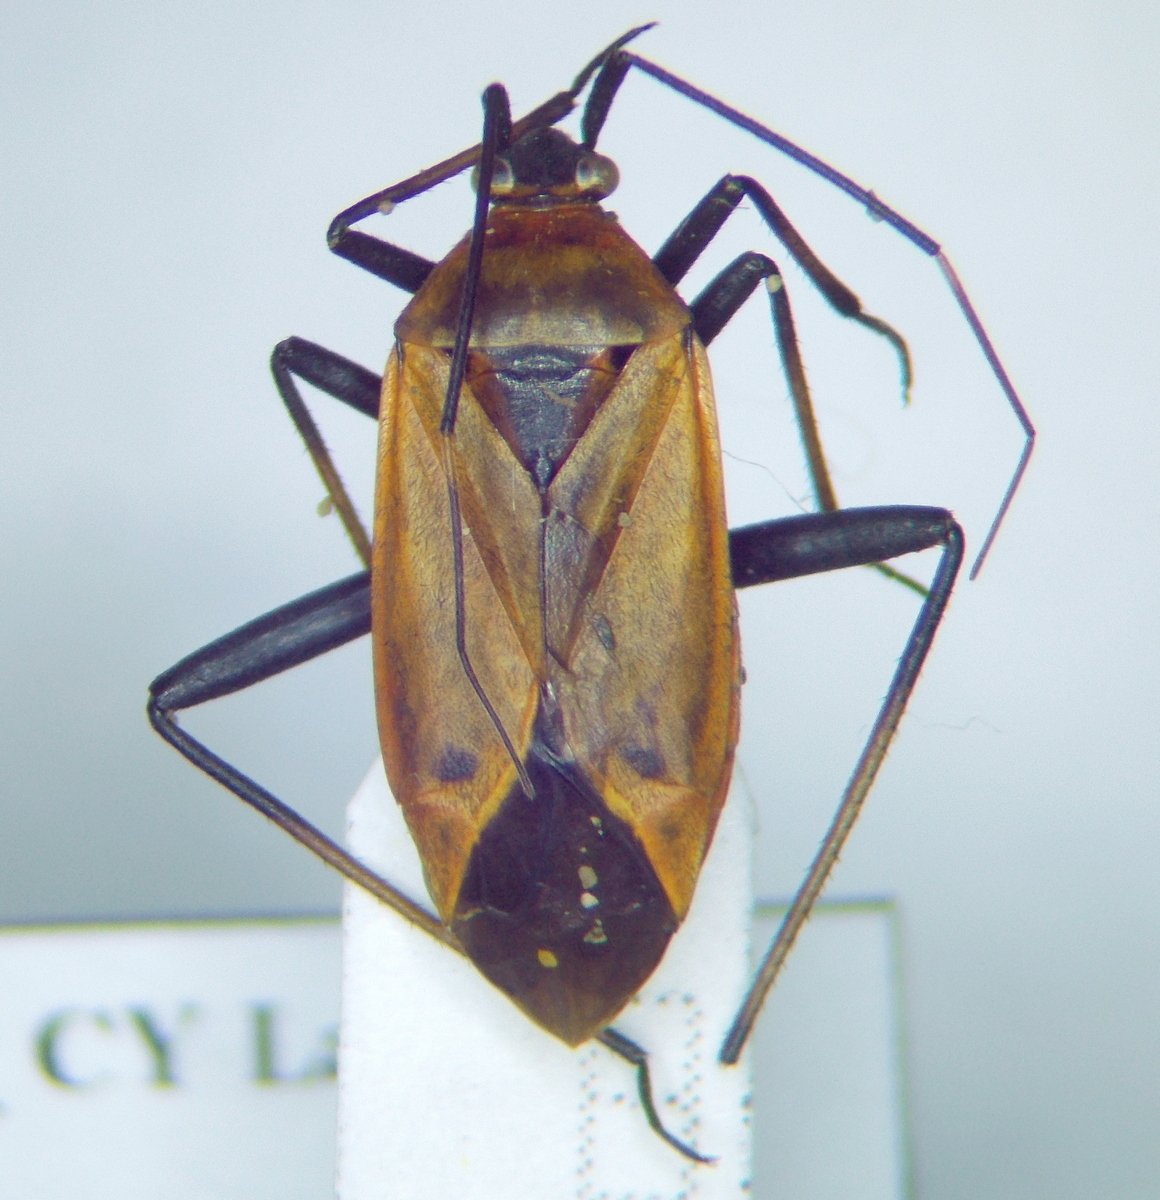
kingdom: Animalia
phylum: Arthropoda
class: Insecta
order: Hemiptera
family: Miridae
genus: Calocoris
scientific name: Calocoris nemoralis
